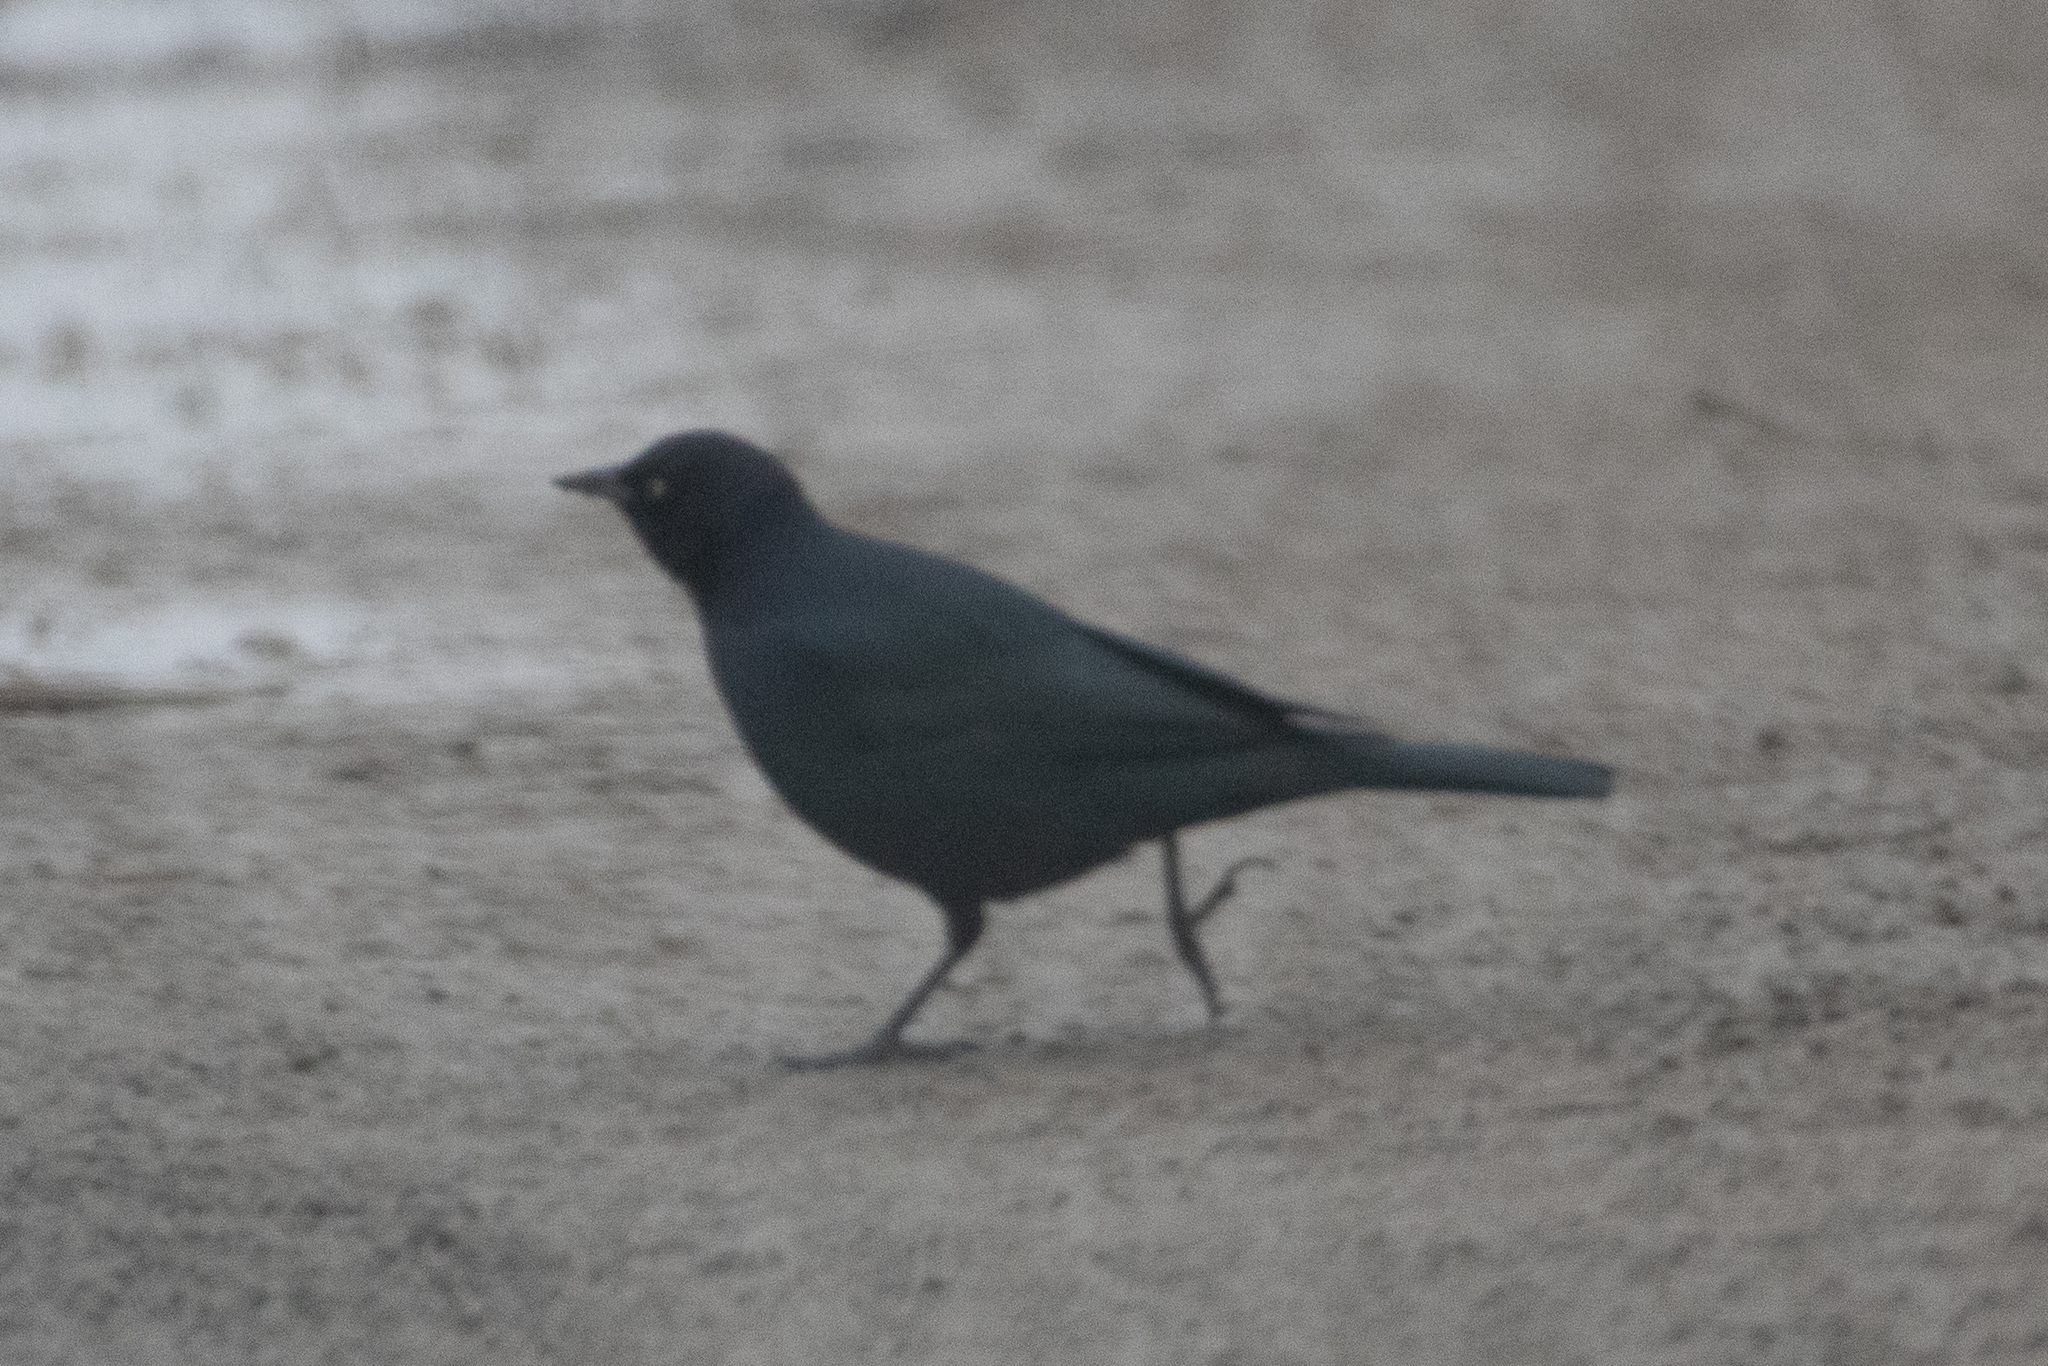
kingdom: Animalia
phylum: Chordata
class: Aves
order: Passeriformes
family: Icteridae
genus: Euphagus
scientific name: Euphagus cyanocephalus
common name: Brewer's blackbird
